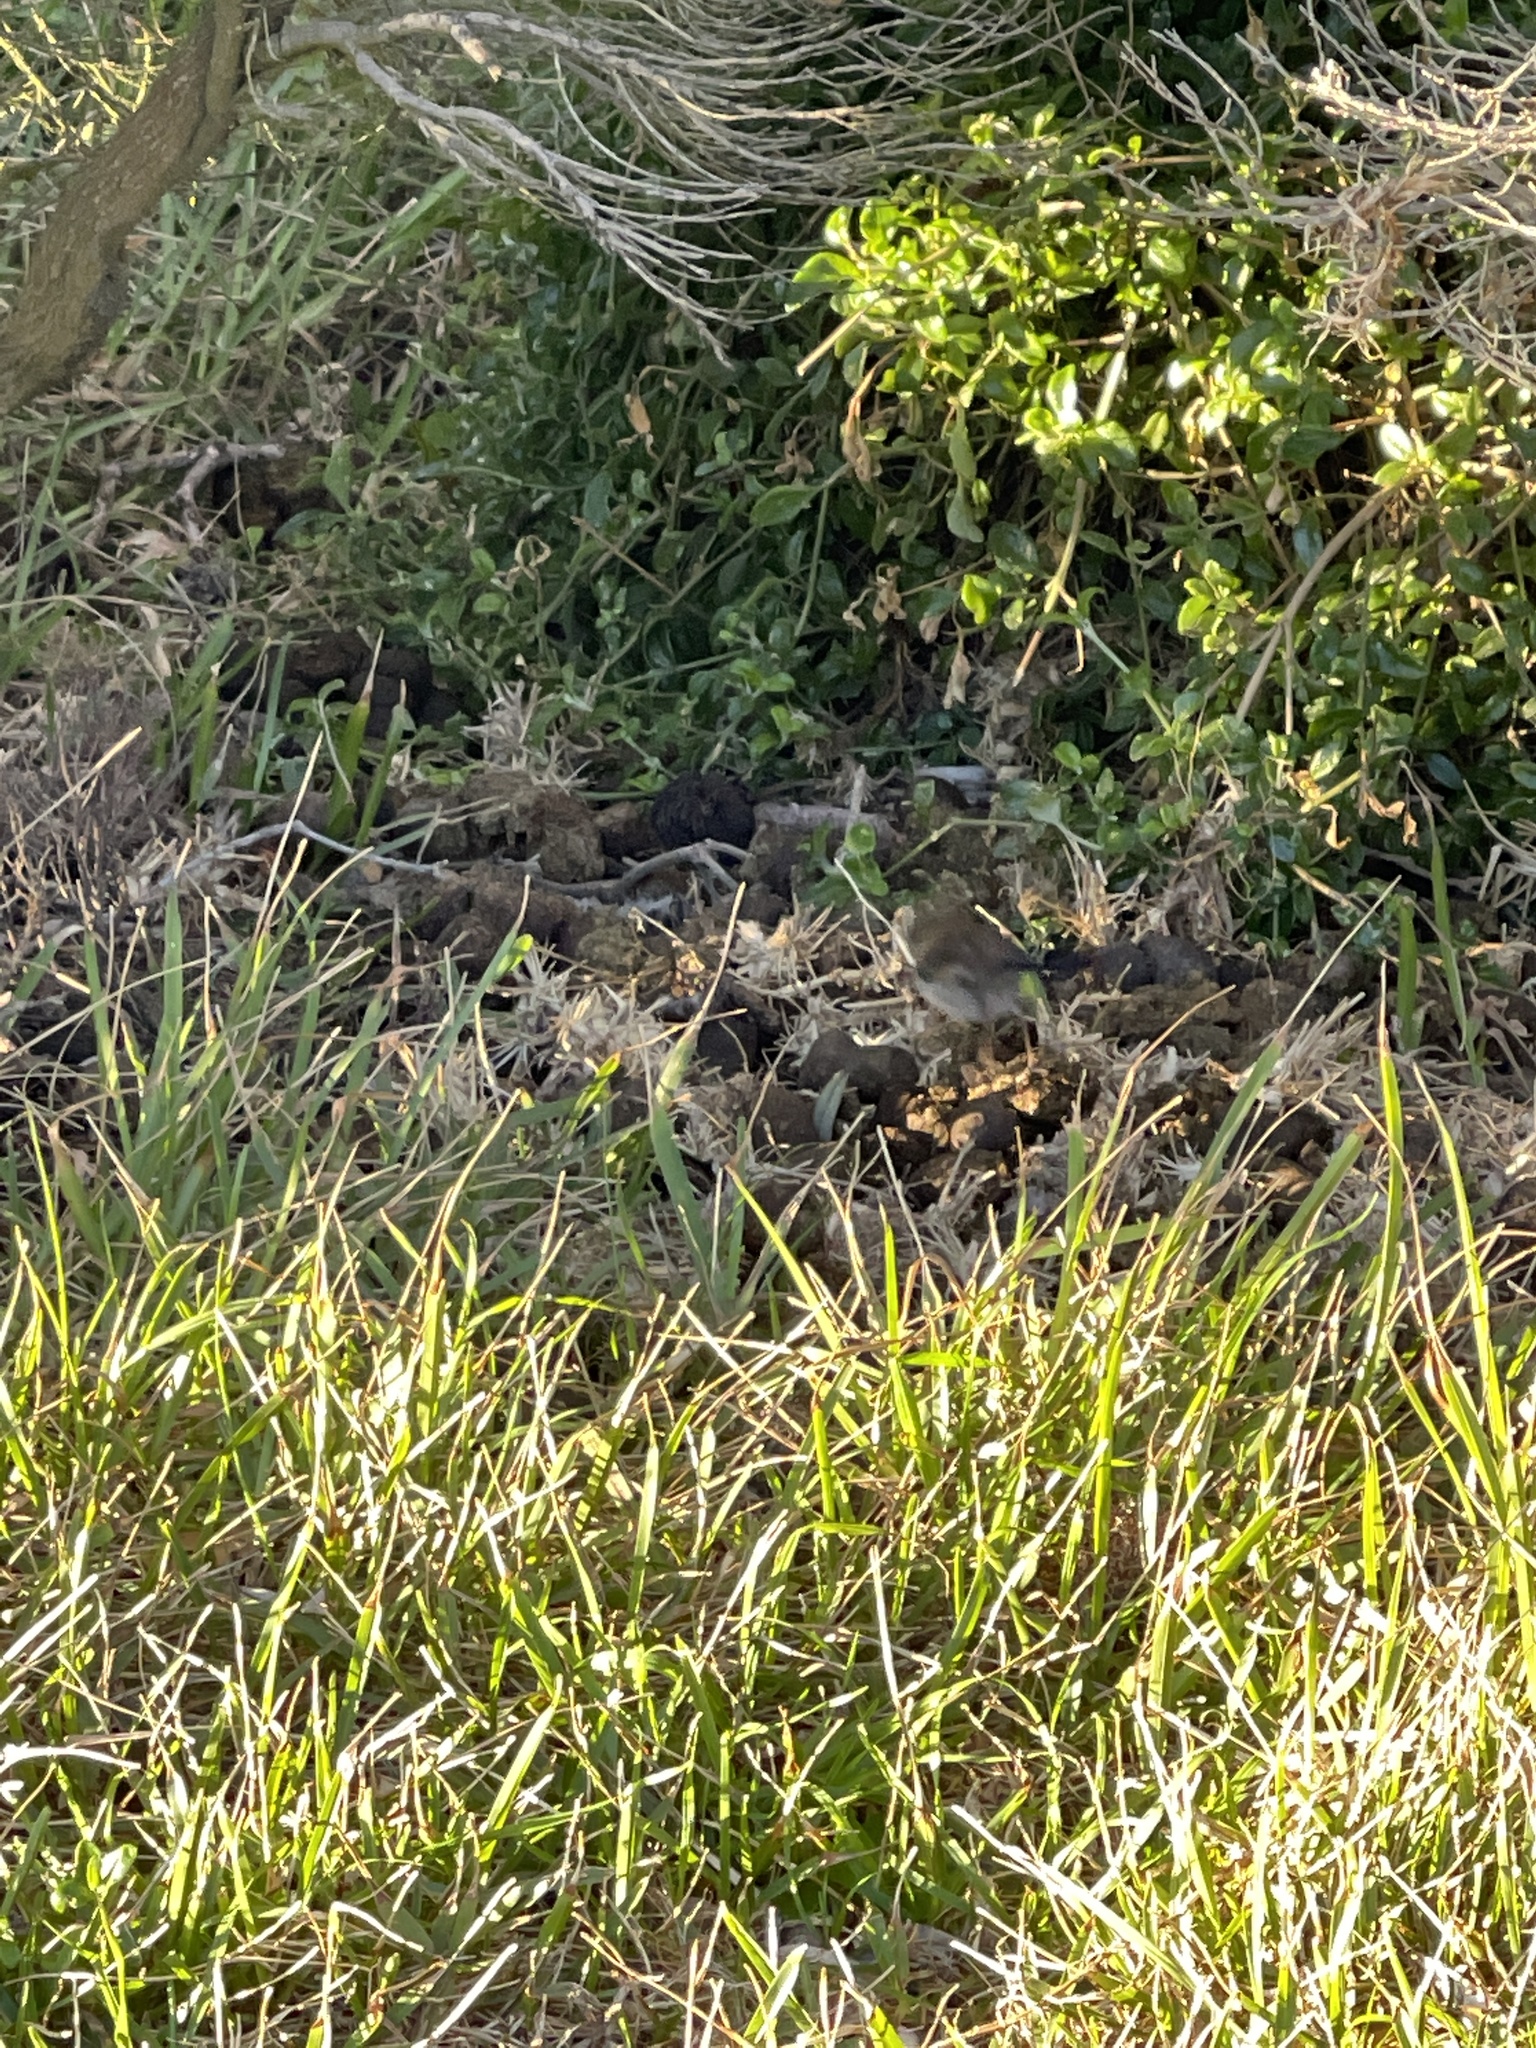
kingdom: Animalia
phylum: Chordata
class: Aves
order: Passeriformes
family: Maluridae
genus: Malurus
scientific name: Malurus cyaneus
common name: Superb fairywren
